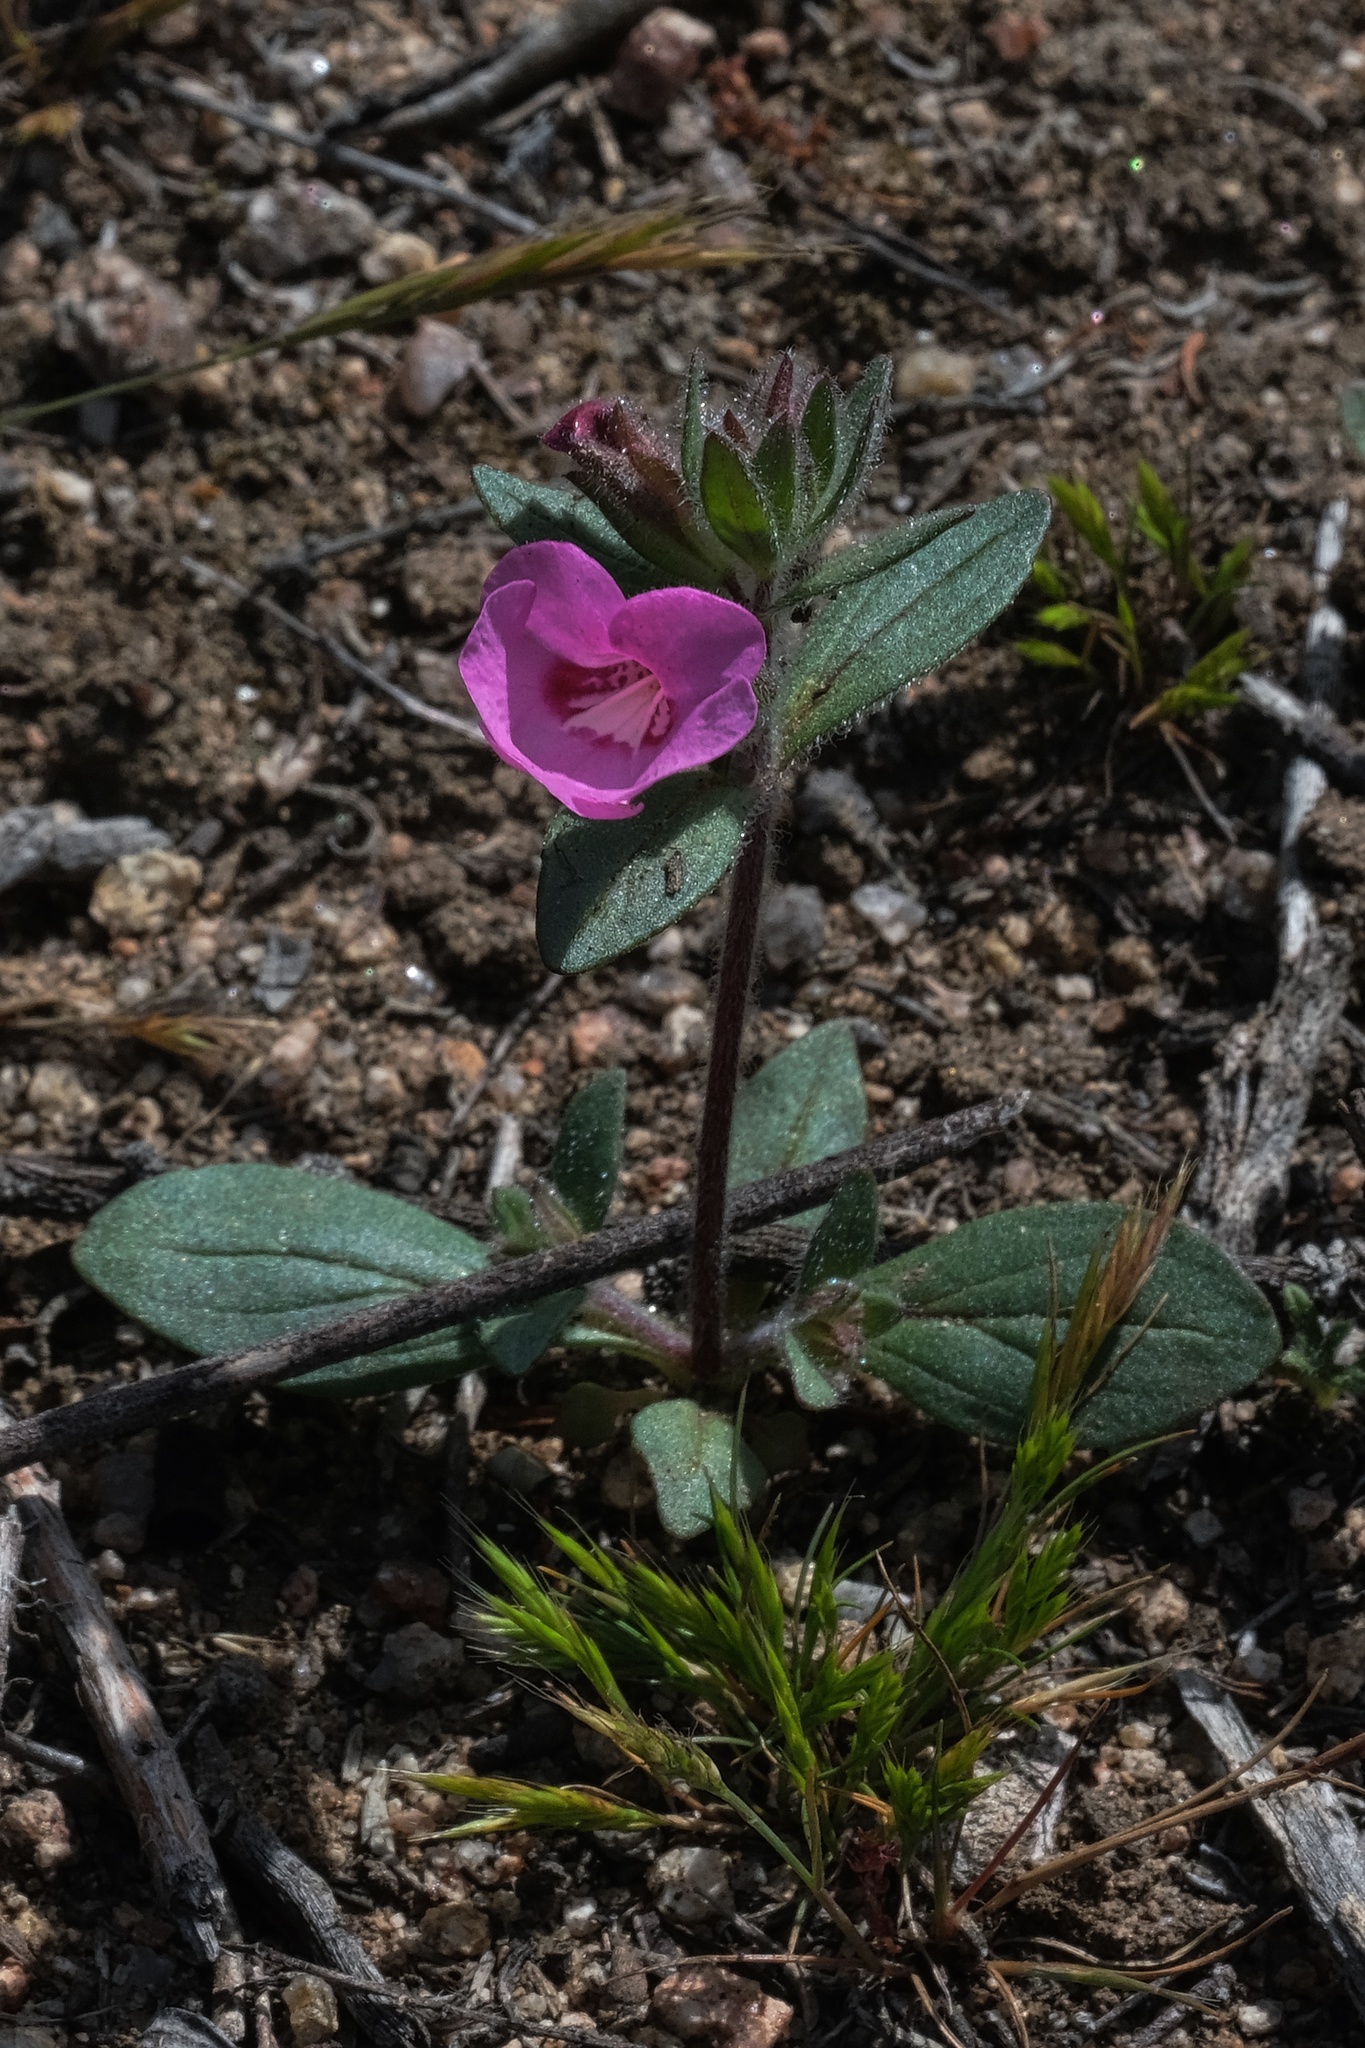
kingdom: Plantae
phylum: Tracheophyta
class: Magnoliopsida
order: Lamiales
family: Phrymaceae
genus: Diplacus
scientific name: Diplacus fremontii
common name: Fremont's monkey-flower
